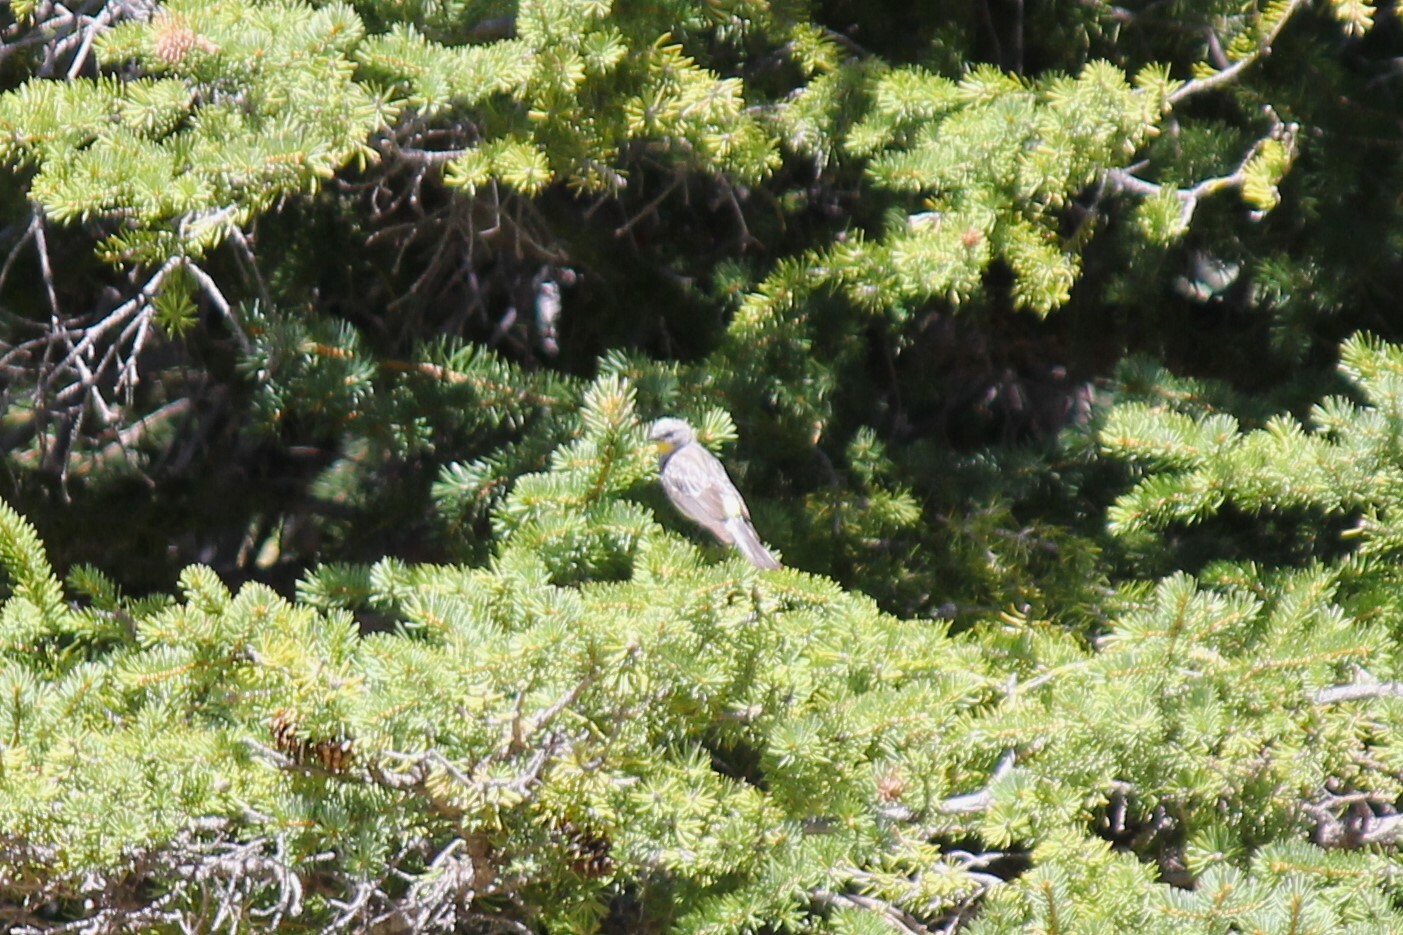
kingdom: Animalia
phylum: Chordata
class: Aves
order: Passeriformes
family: Parulidae
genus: Setophaga
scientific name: Setophaga coronata
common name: Myrtle warbler
